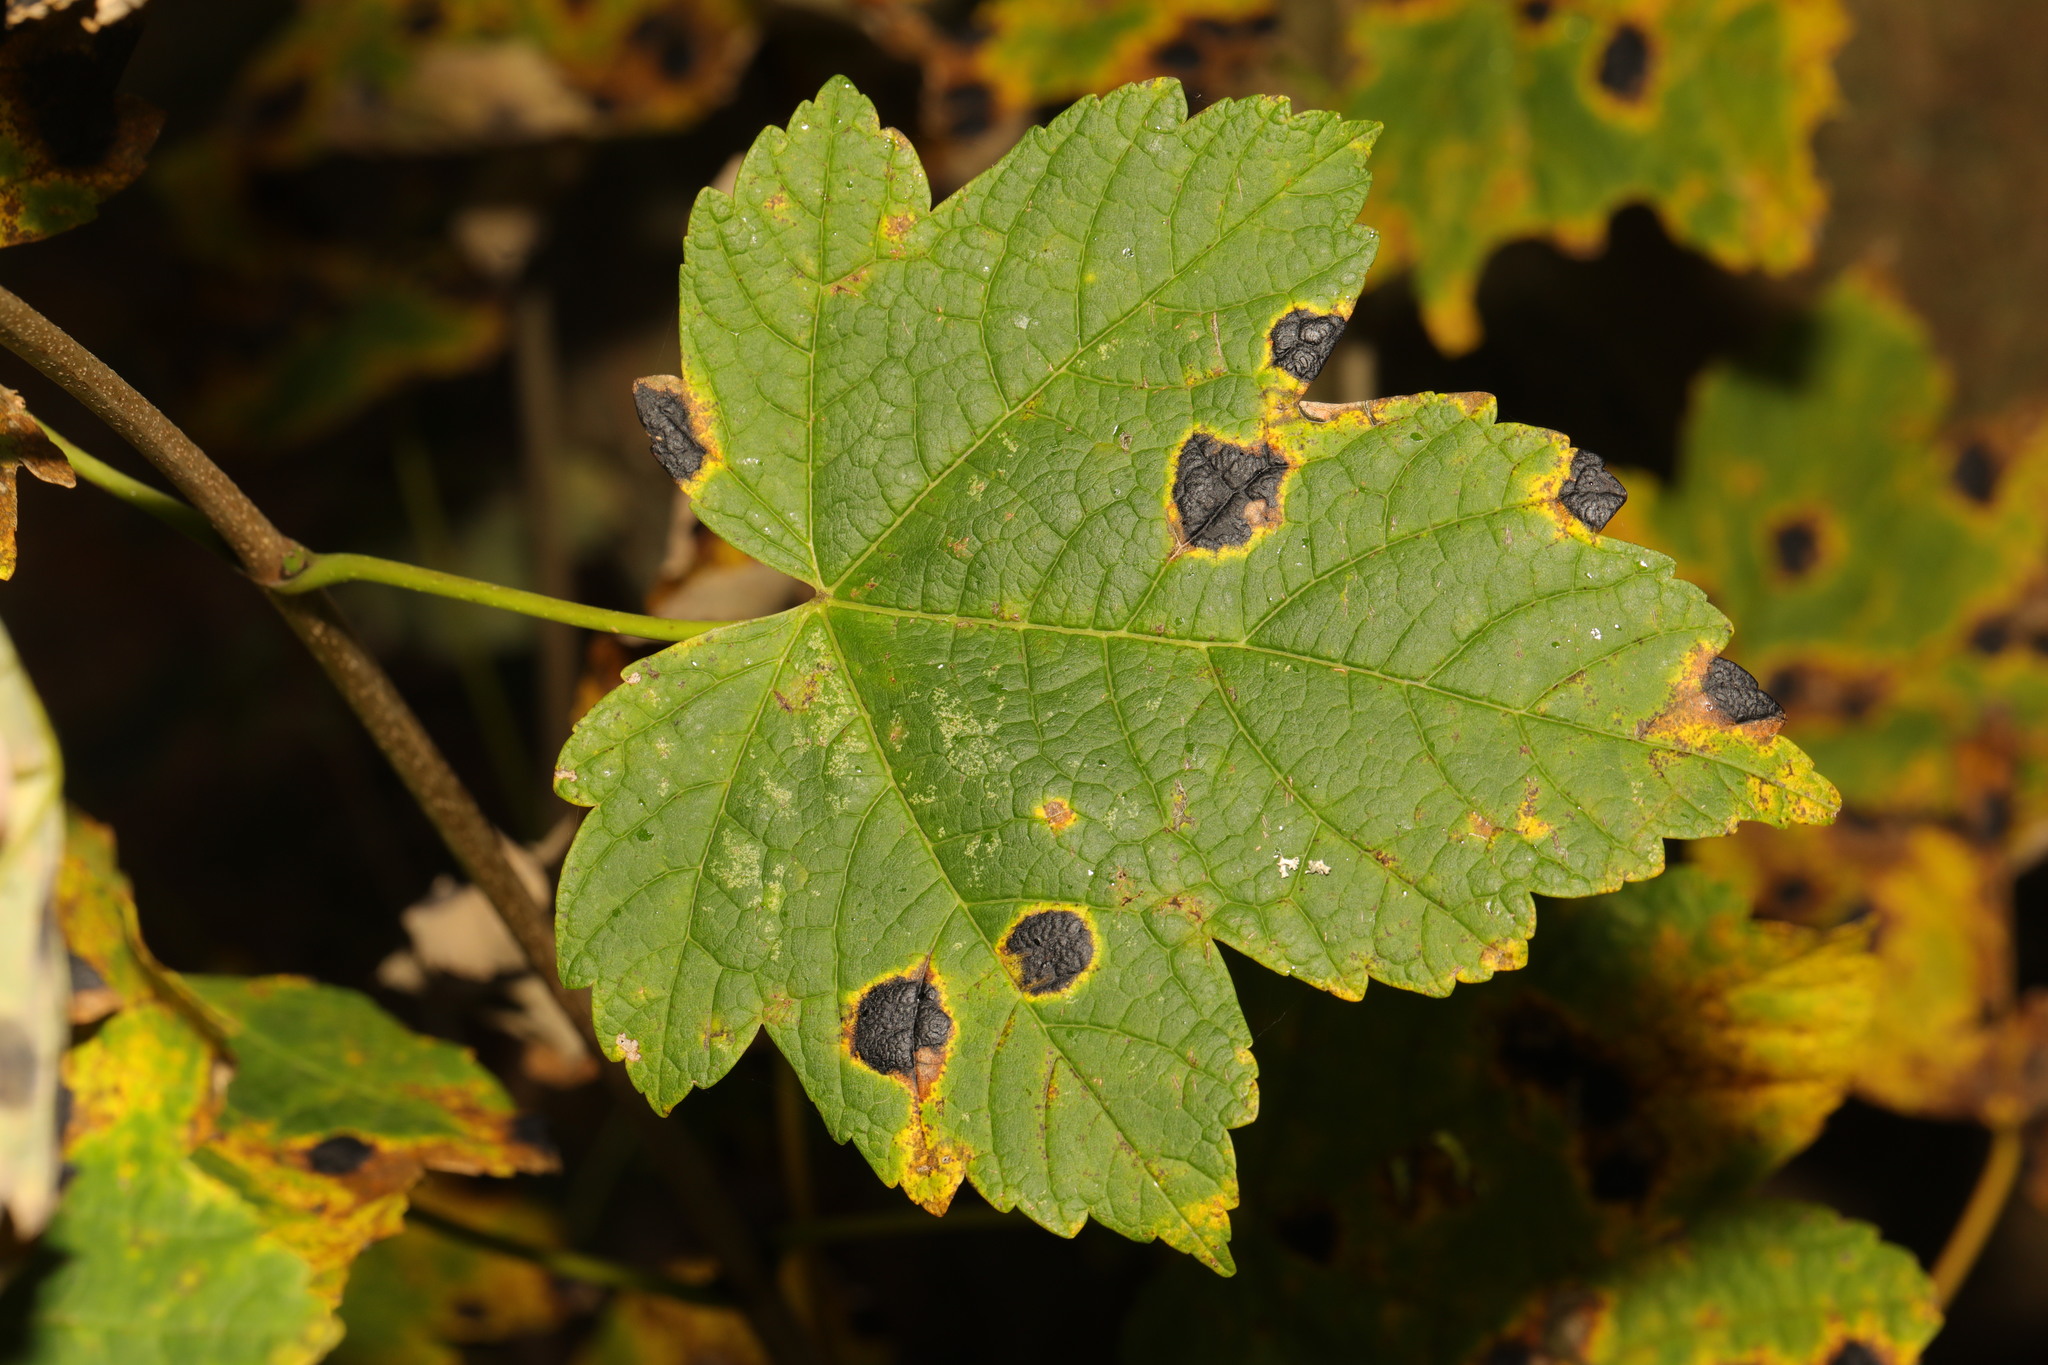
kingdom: Plantae
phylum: Tracheophyta
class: Magnoliopsida
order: Sapindales
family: Sapindaceae
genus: Acer
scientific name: Acer pseudoplatanus
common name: Sycamore
